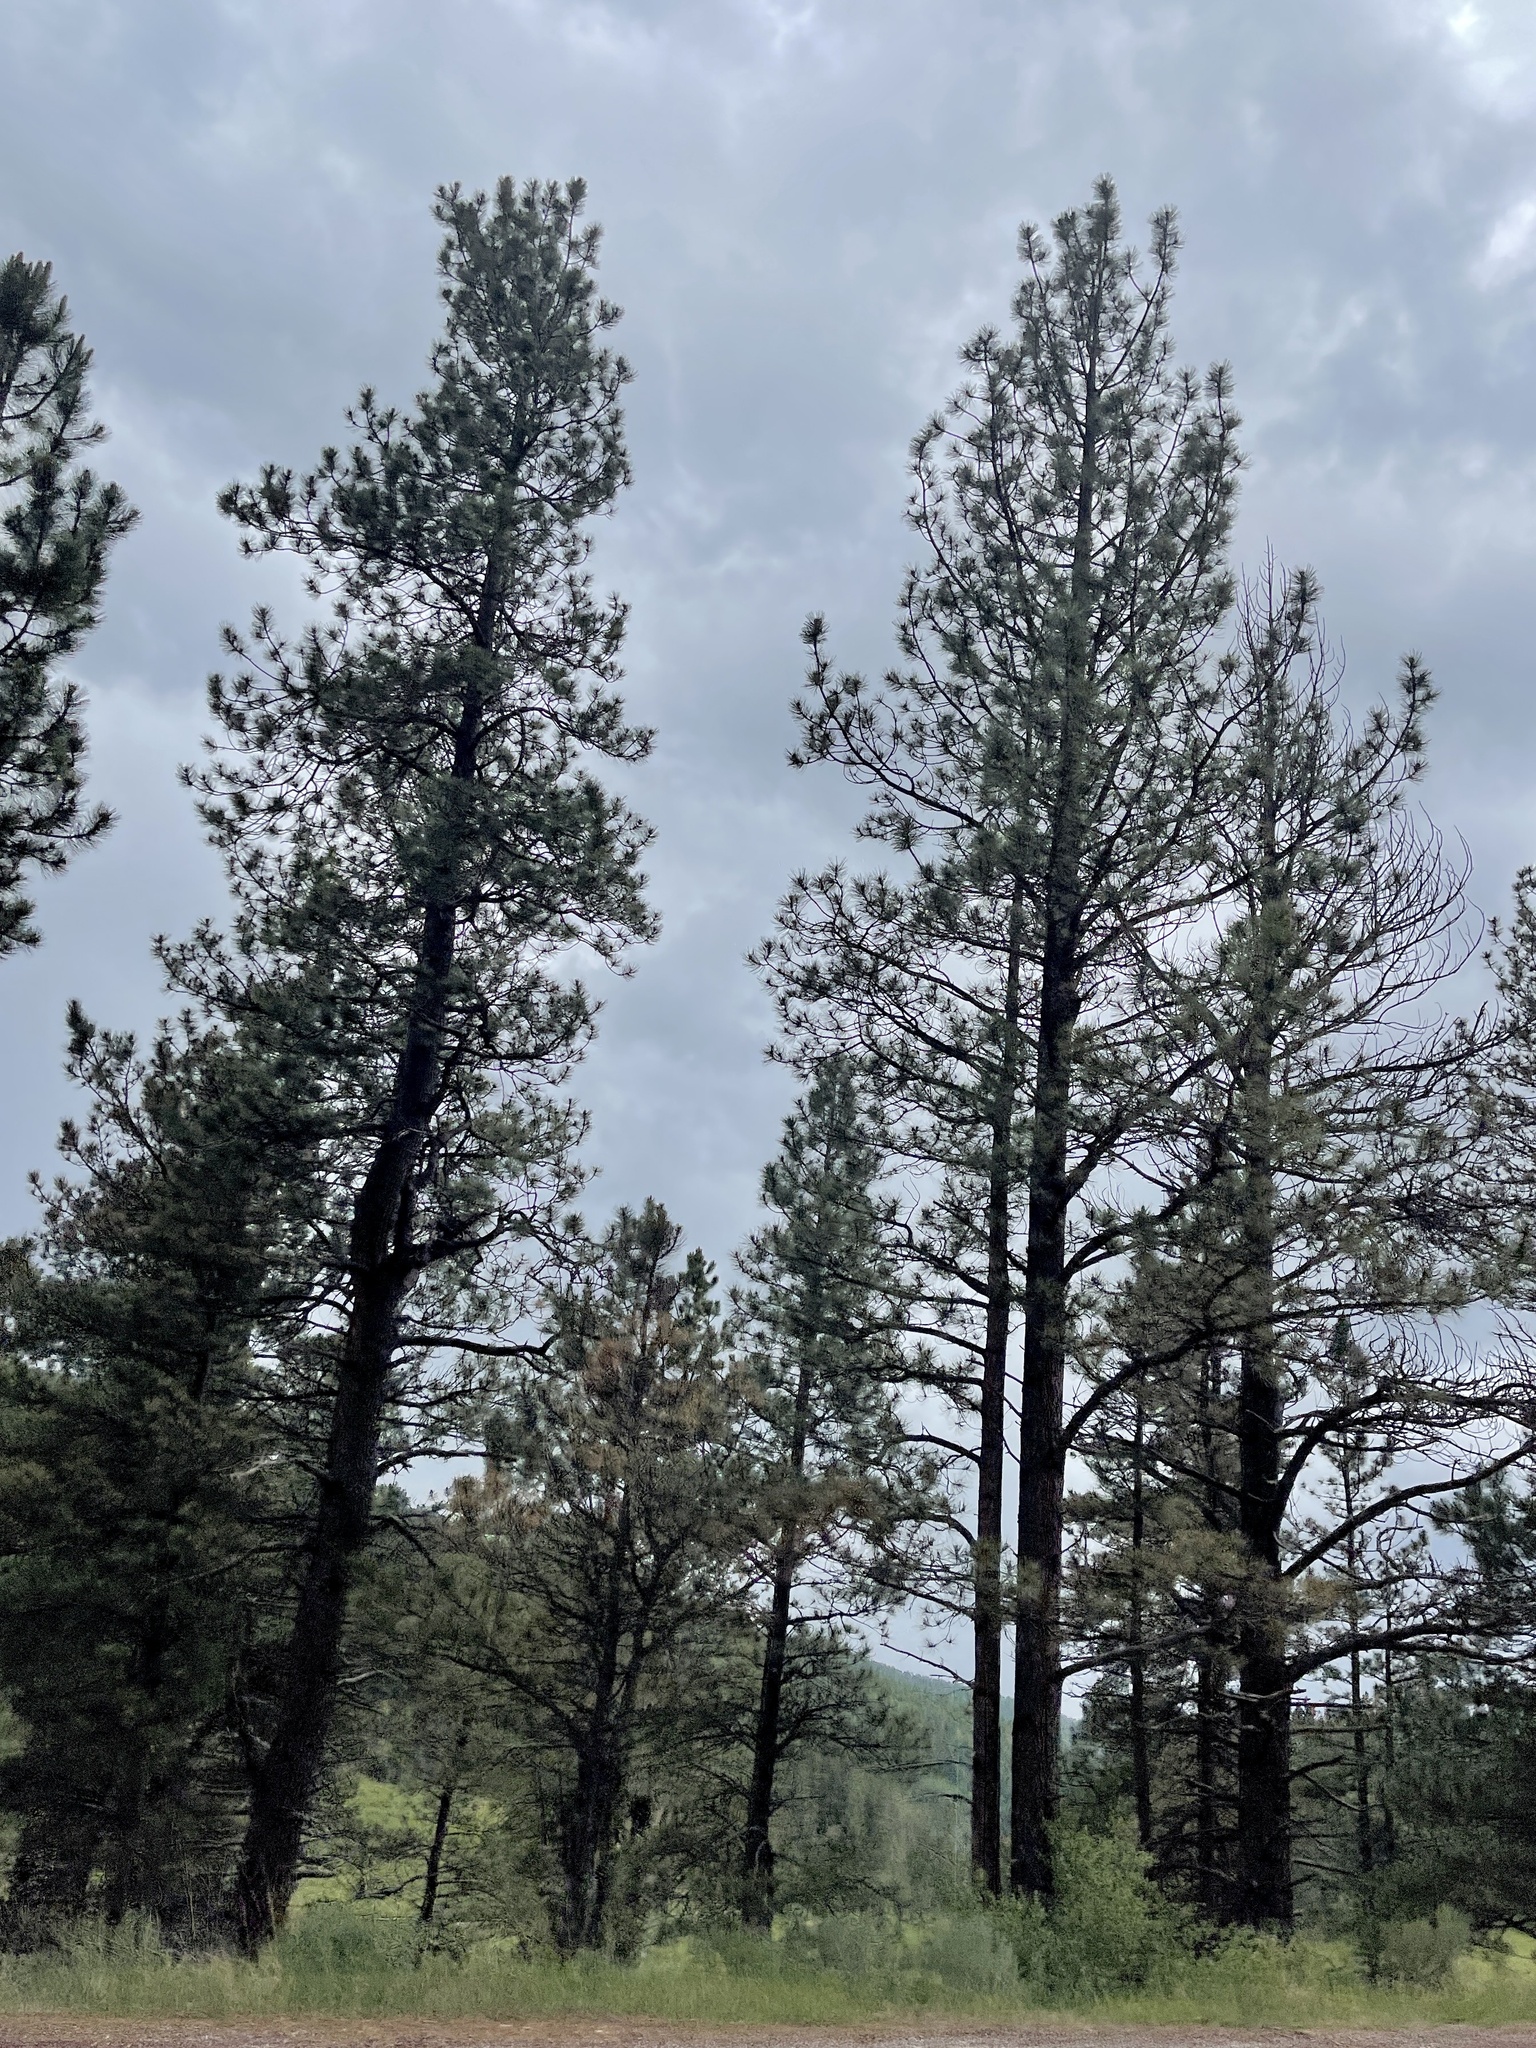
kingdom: Plantae
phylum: Tracheophyta
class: Pinopsida
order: Pinales
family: Pinaceae
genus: Pinus
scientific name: Pinus ponderosa
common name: Western yellow-pine
